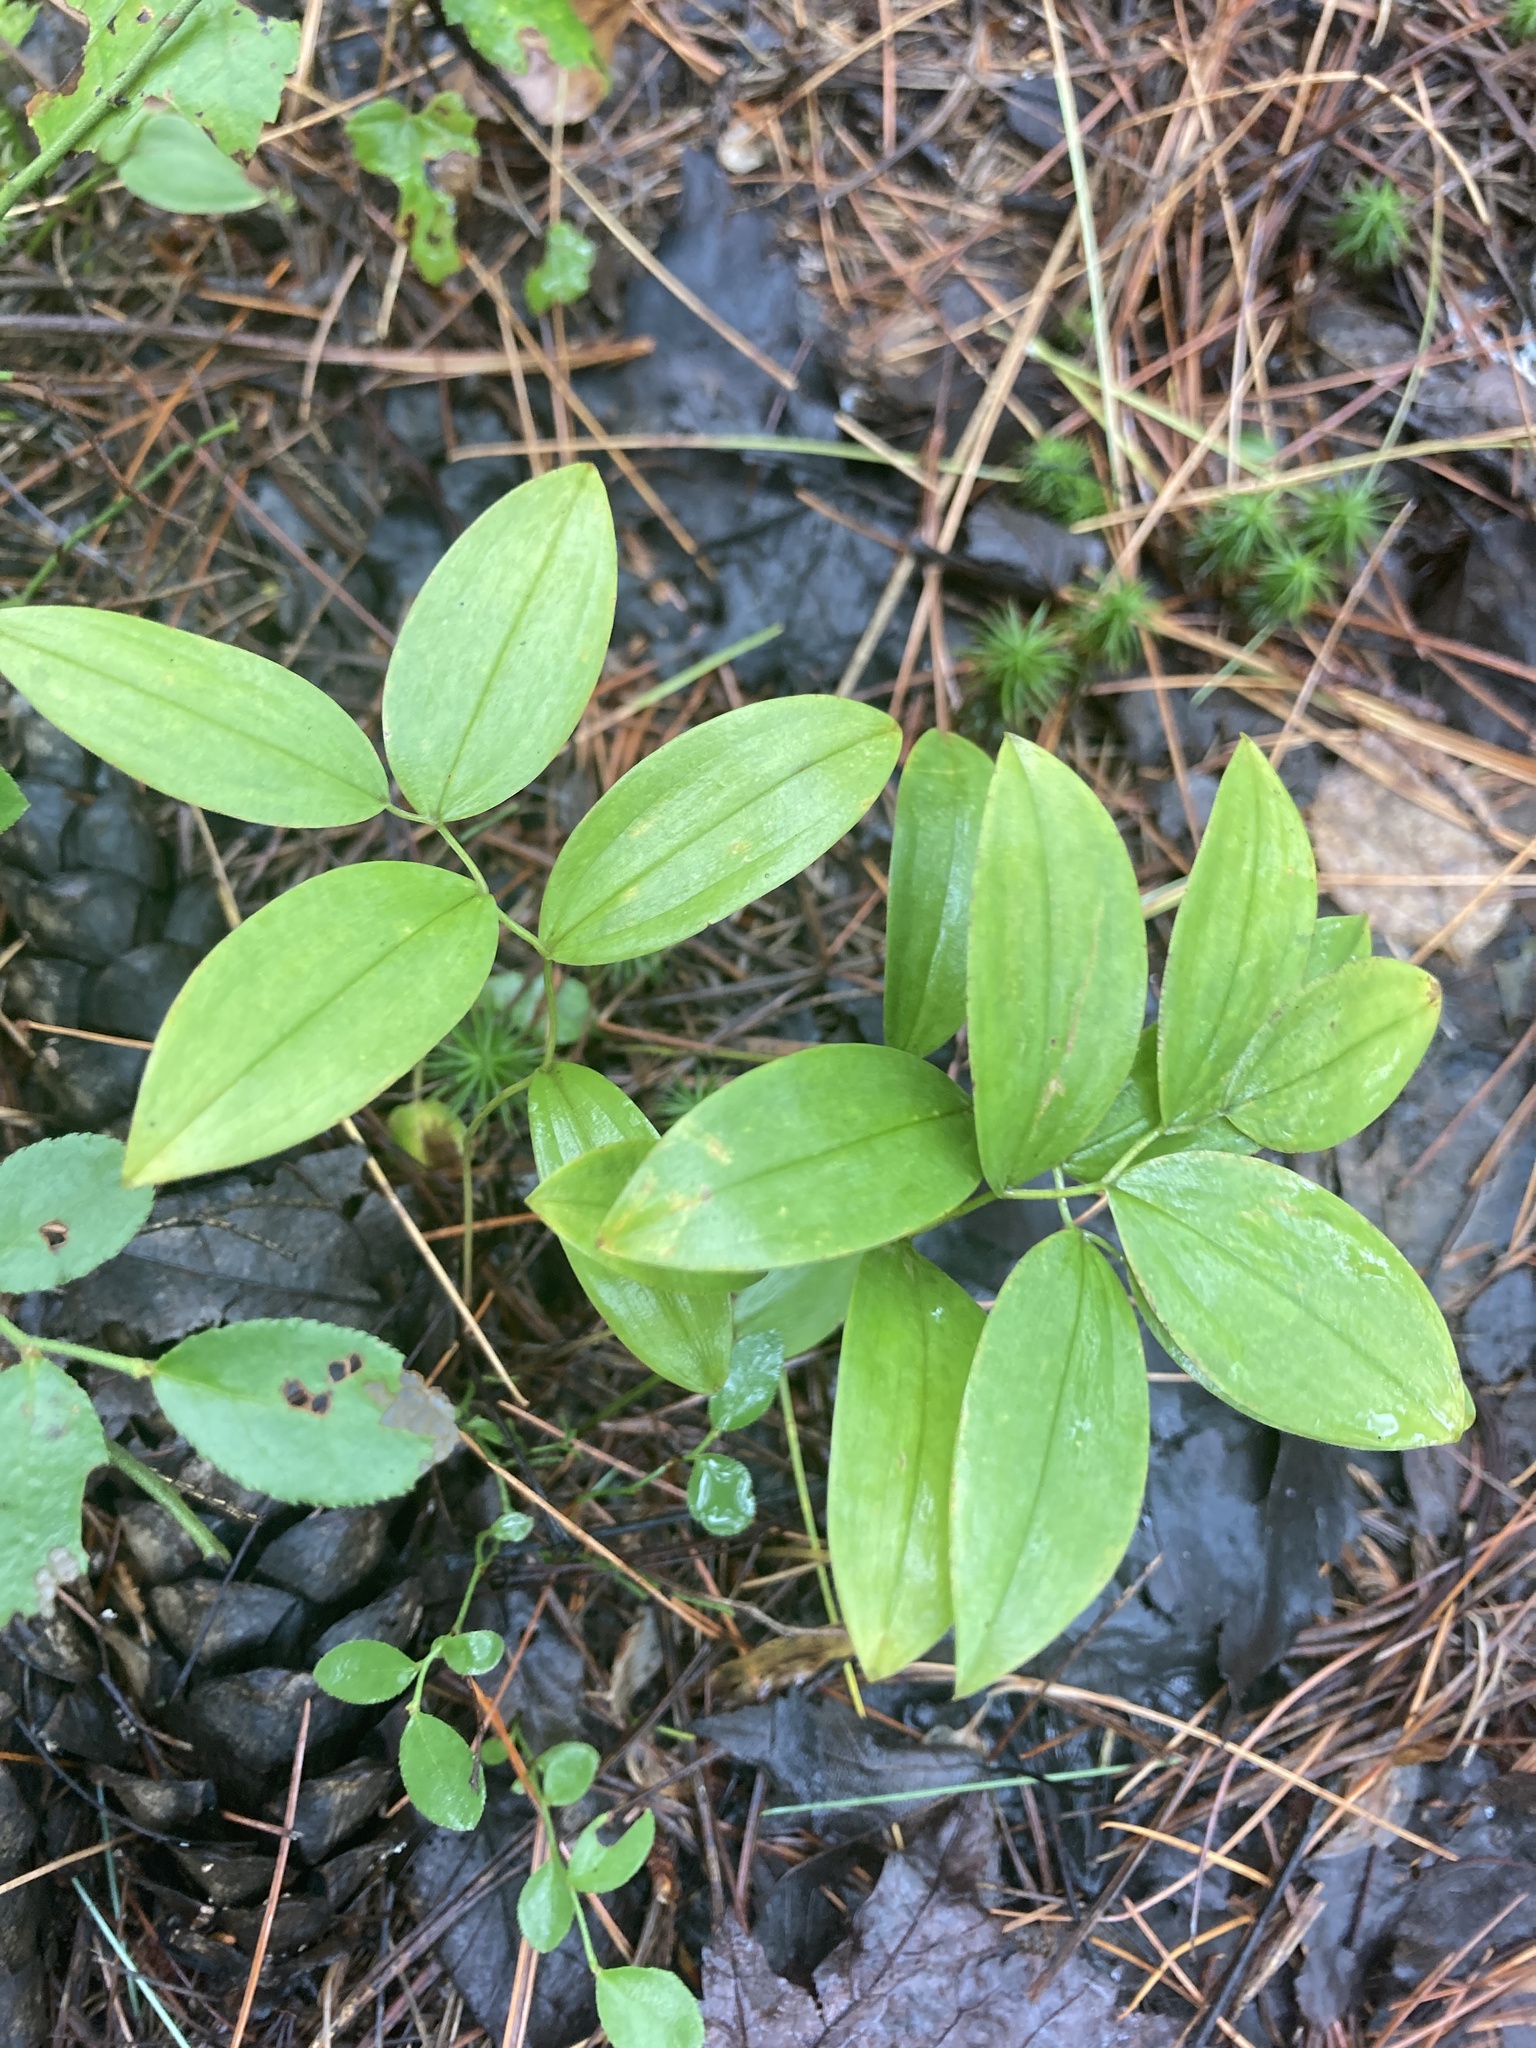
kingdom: Plantae
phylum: Tracheophyta
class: Liliopsida
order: Liliales
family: Colchicaceae
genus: Uvularia
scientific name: Uvularia sessilifolia
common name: Straw-lily
